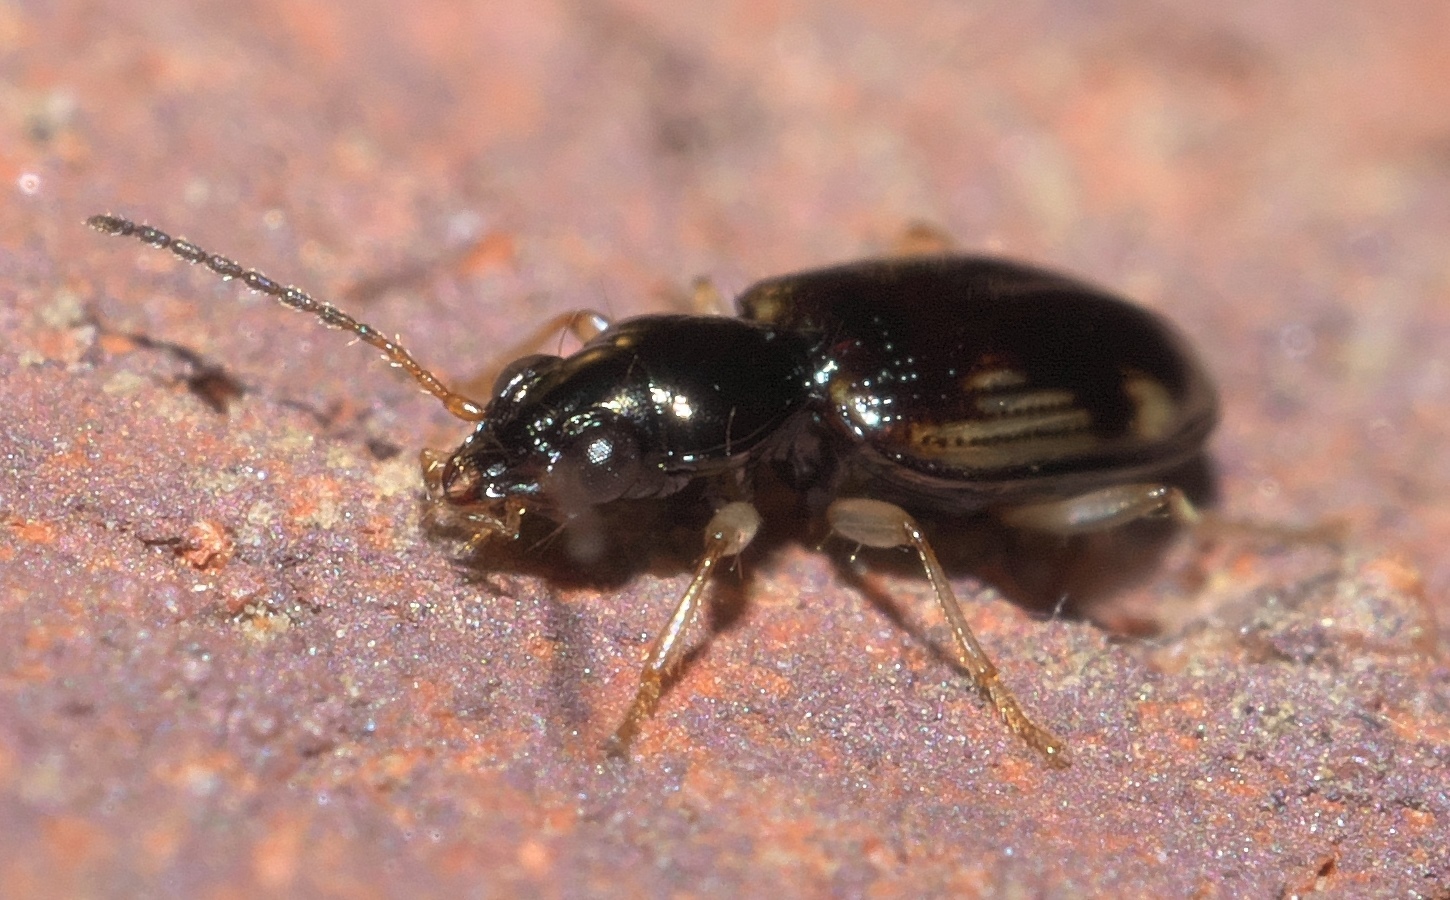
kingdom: Animalia
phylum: Arthropoda
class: Insecta
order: Coleoptera
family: Carabidae
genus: Bembidion
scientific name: Bembidion affine
